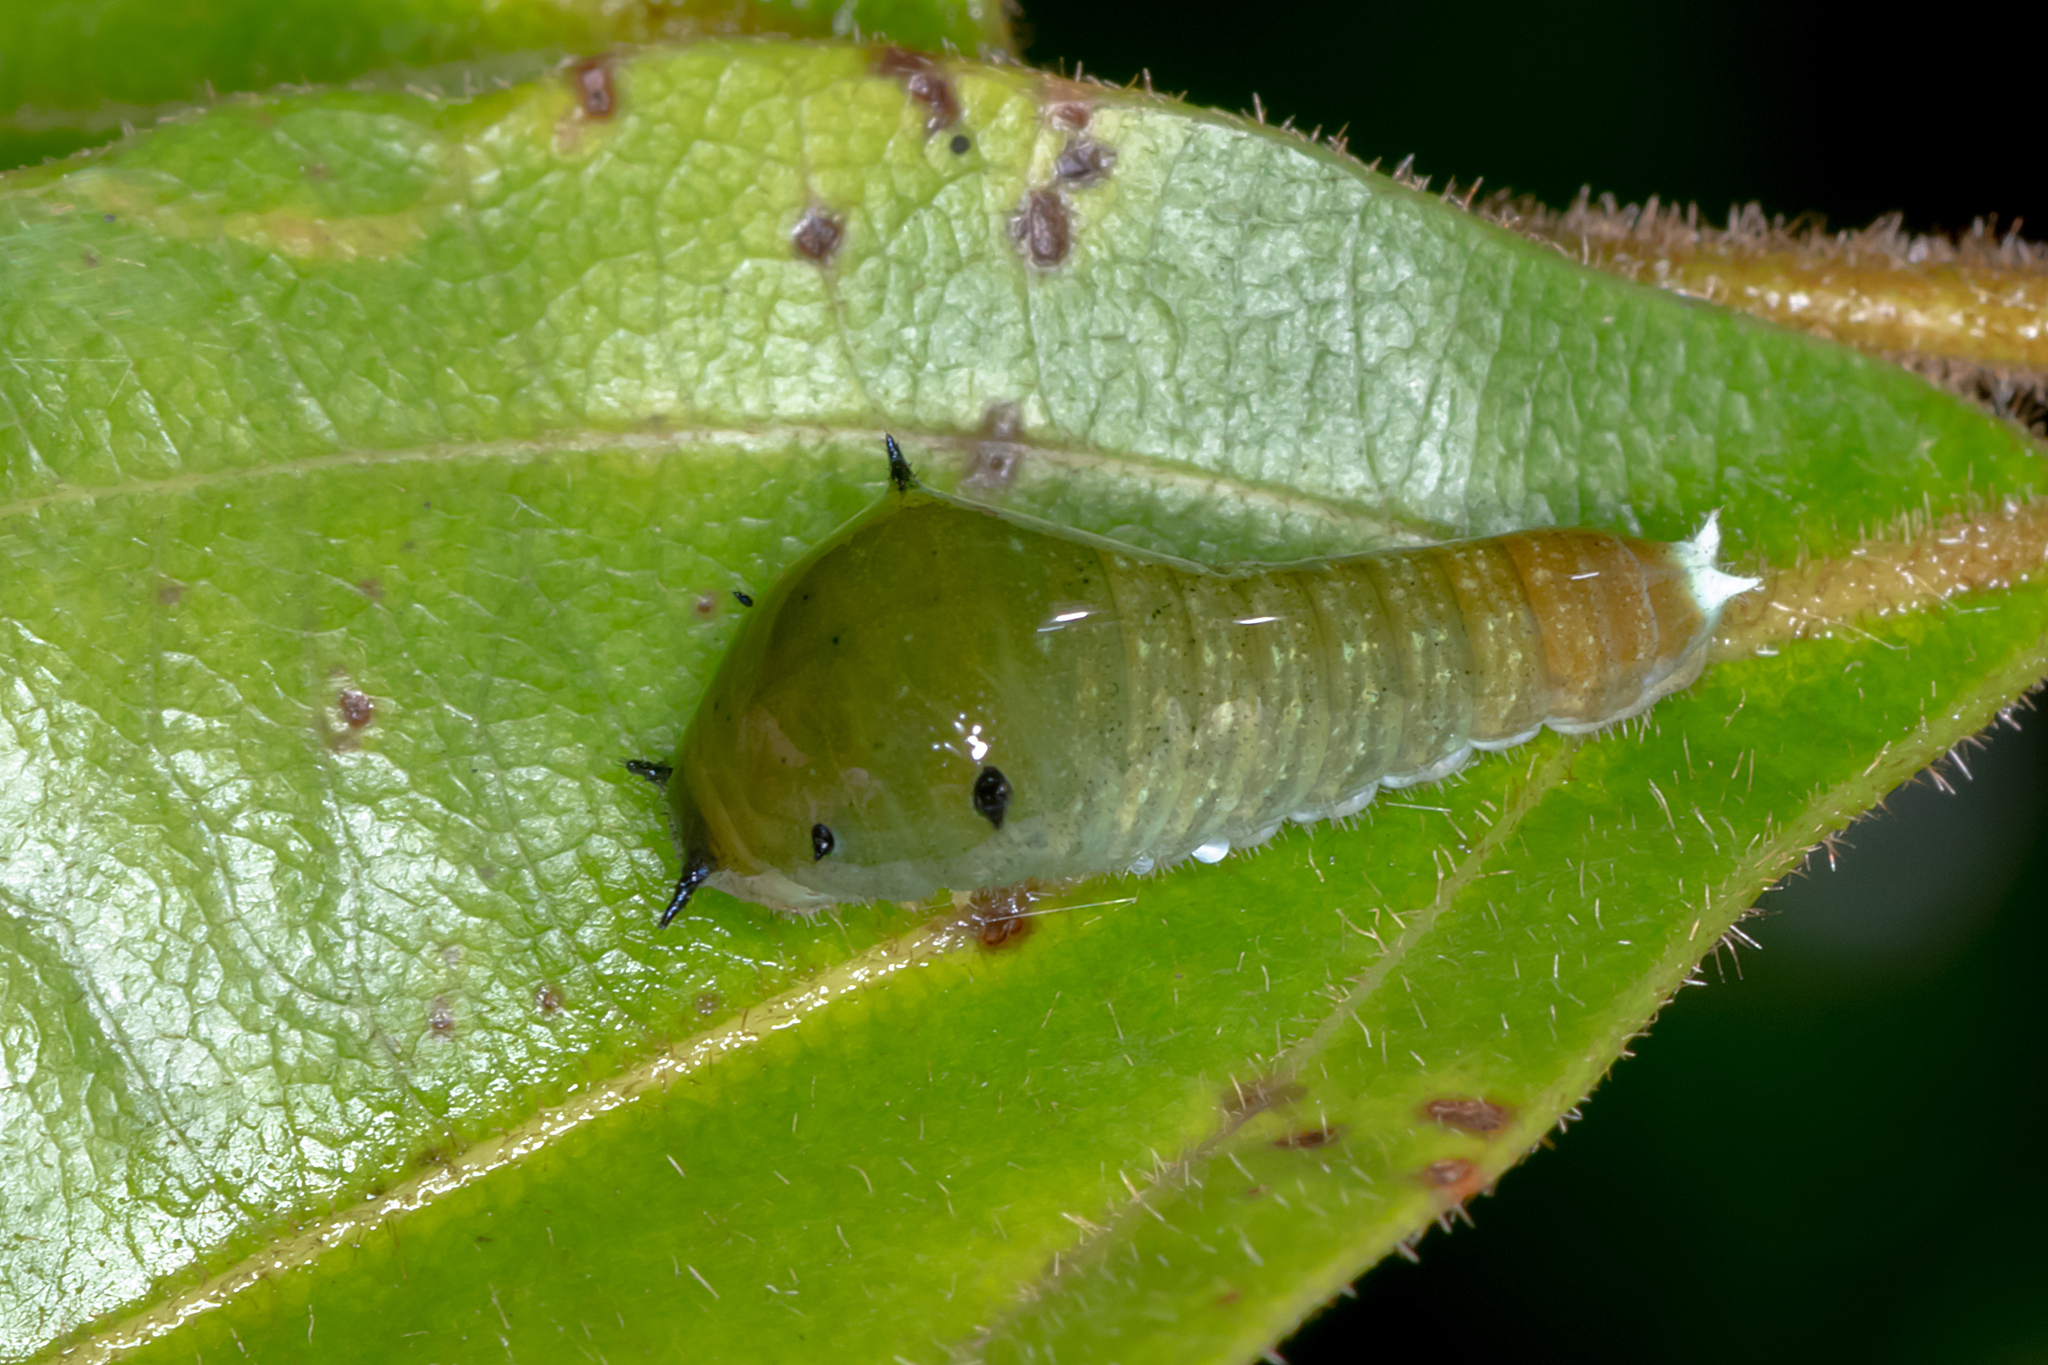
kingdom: Animalia
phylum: Arthropoda
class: Insecta
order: Lepidoptera
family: Papilionidae
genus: Graphium
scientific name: Graphium eurypylus
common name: Great jay
